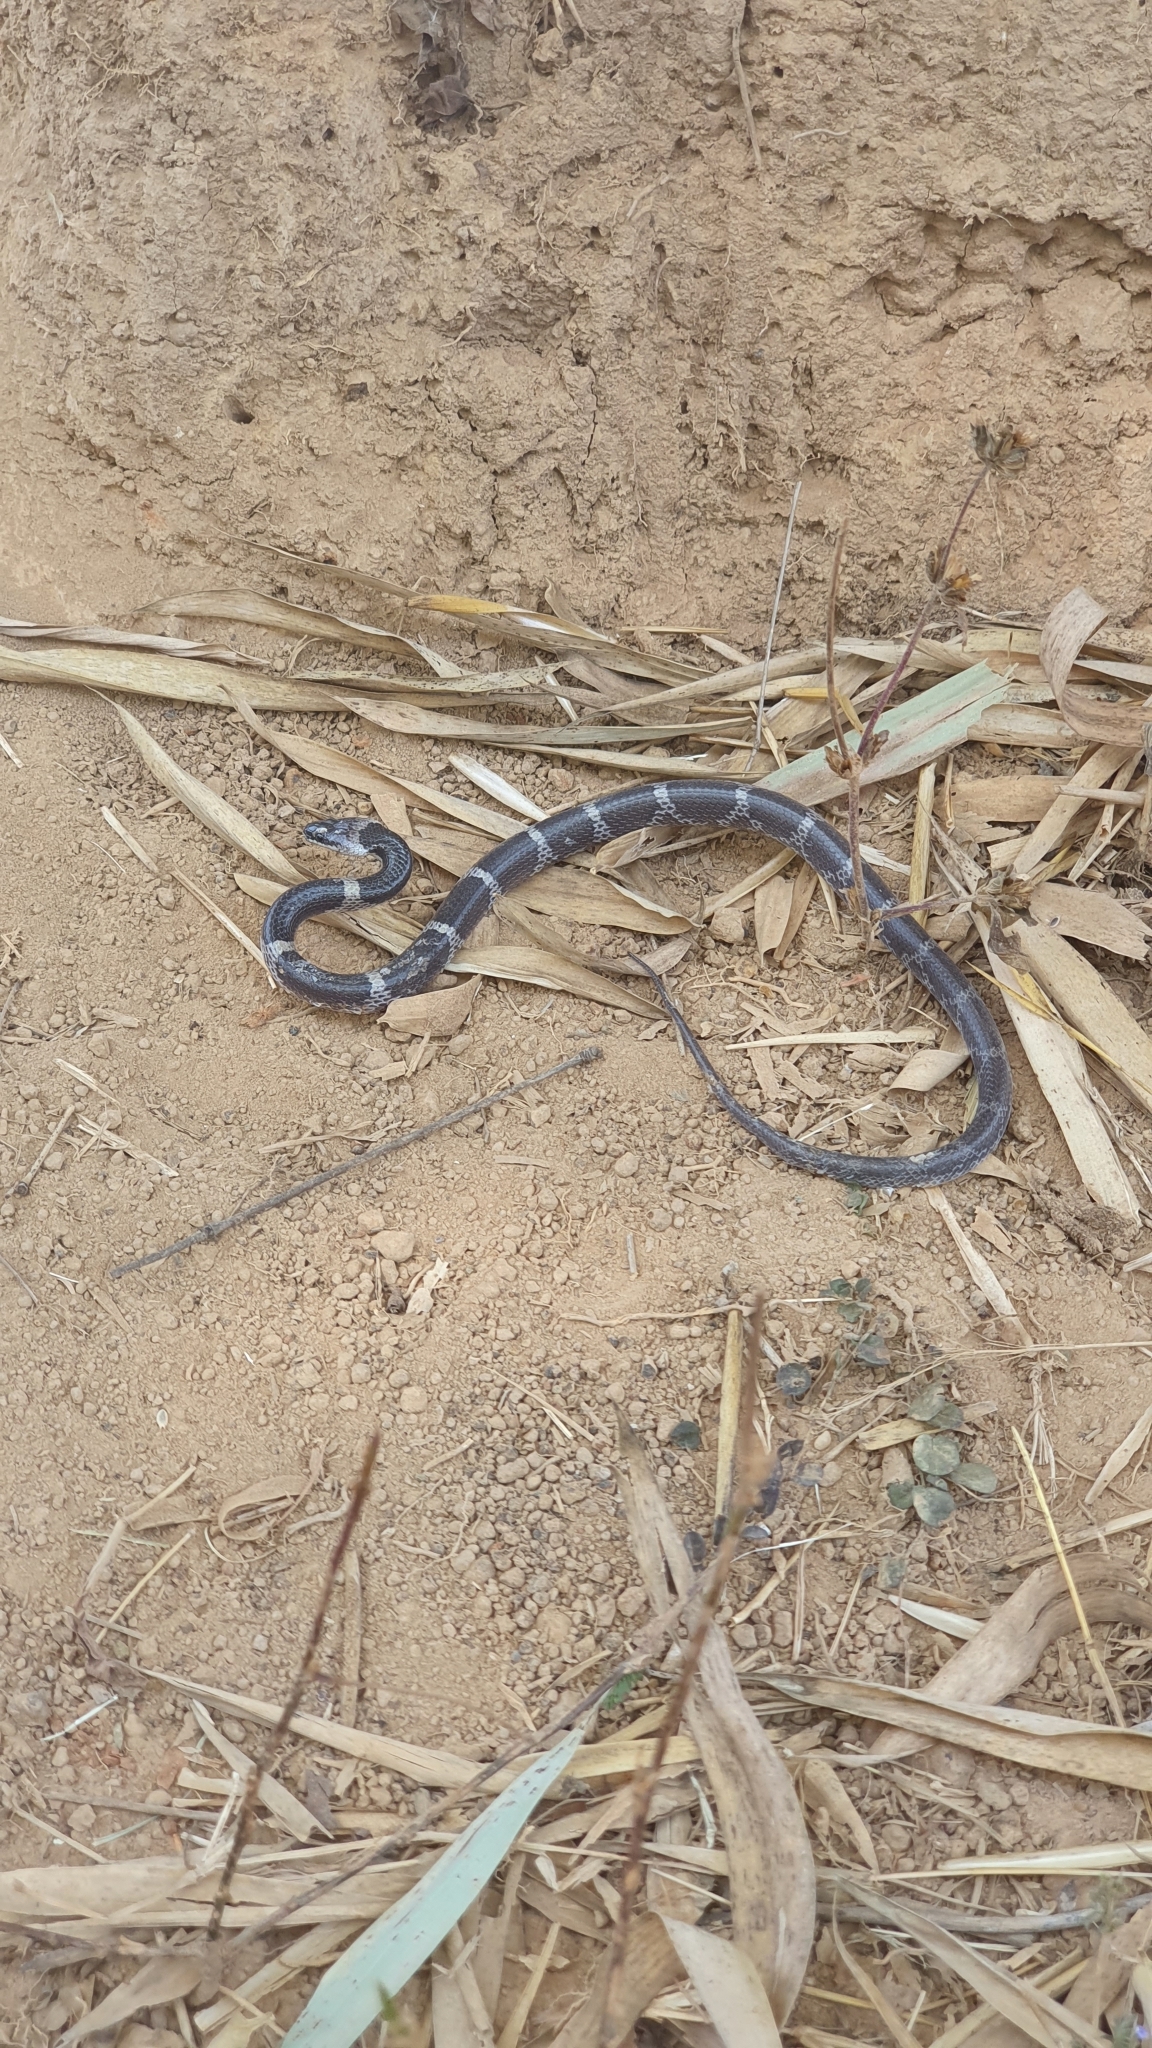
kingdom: Animalia
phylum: Chordata
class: Squamata
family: Colubridae
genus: Lycodon
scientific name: Lycodon aulicus
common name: Common wolf snake
